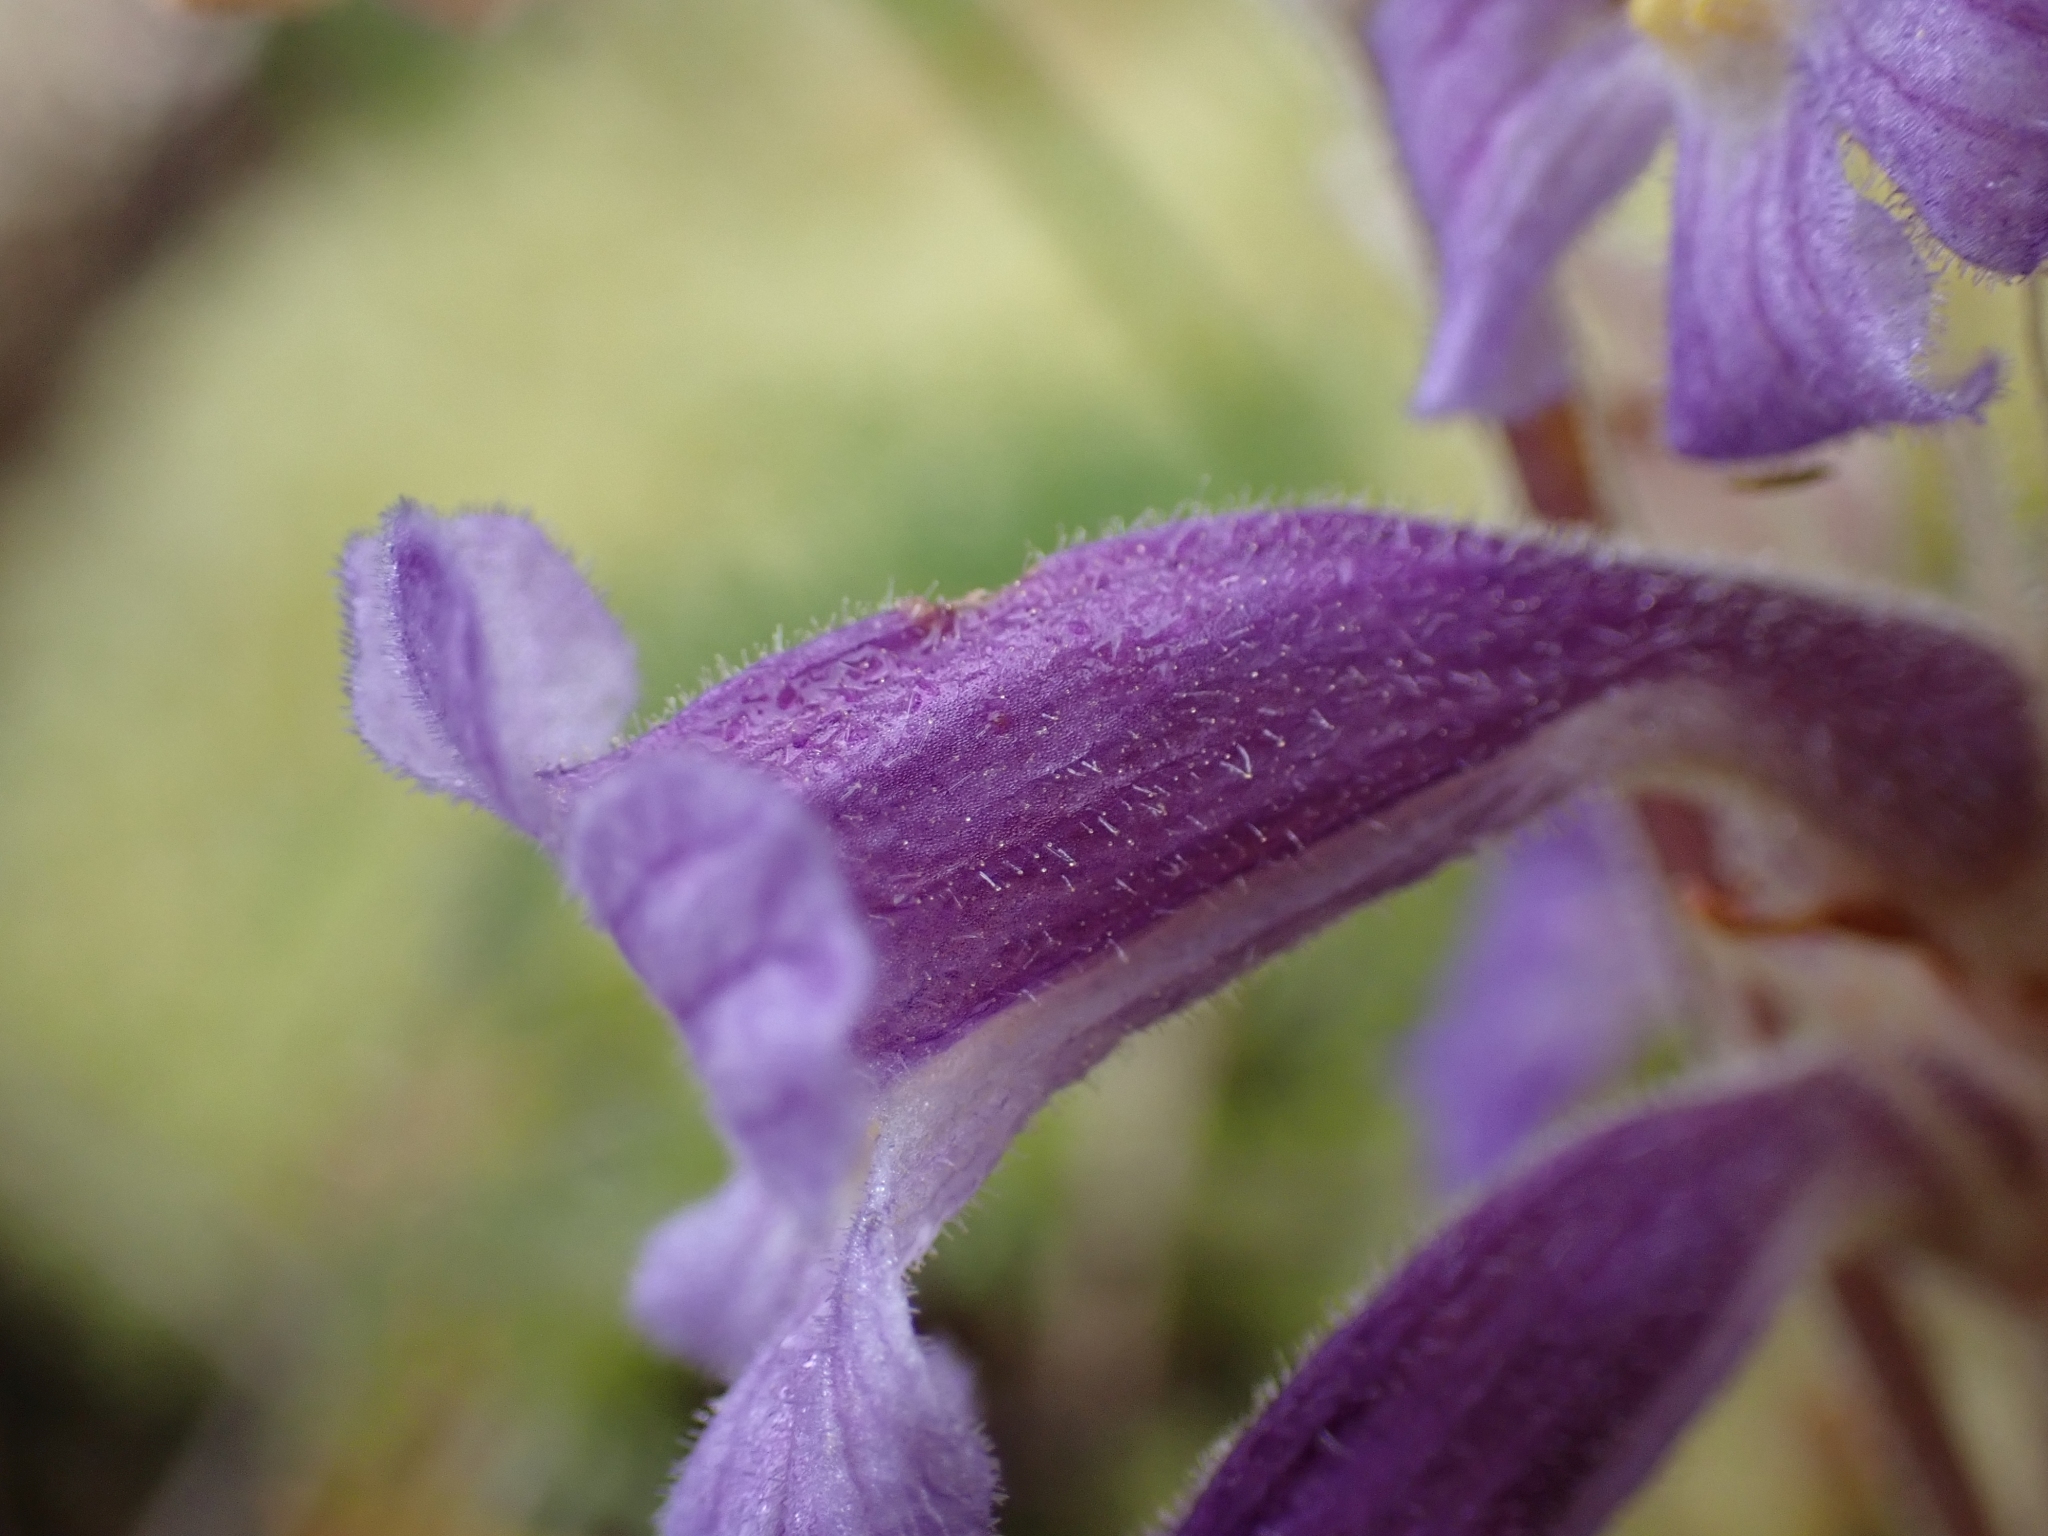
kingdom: Plantae
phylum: Tracheophyta
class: Magnoliopsida
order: Lamiales
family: Orobanchaceae
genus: Aphyllon
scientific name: Aphyllon uniflorum
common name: One-flowered broomrape
